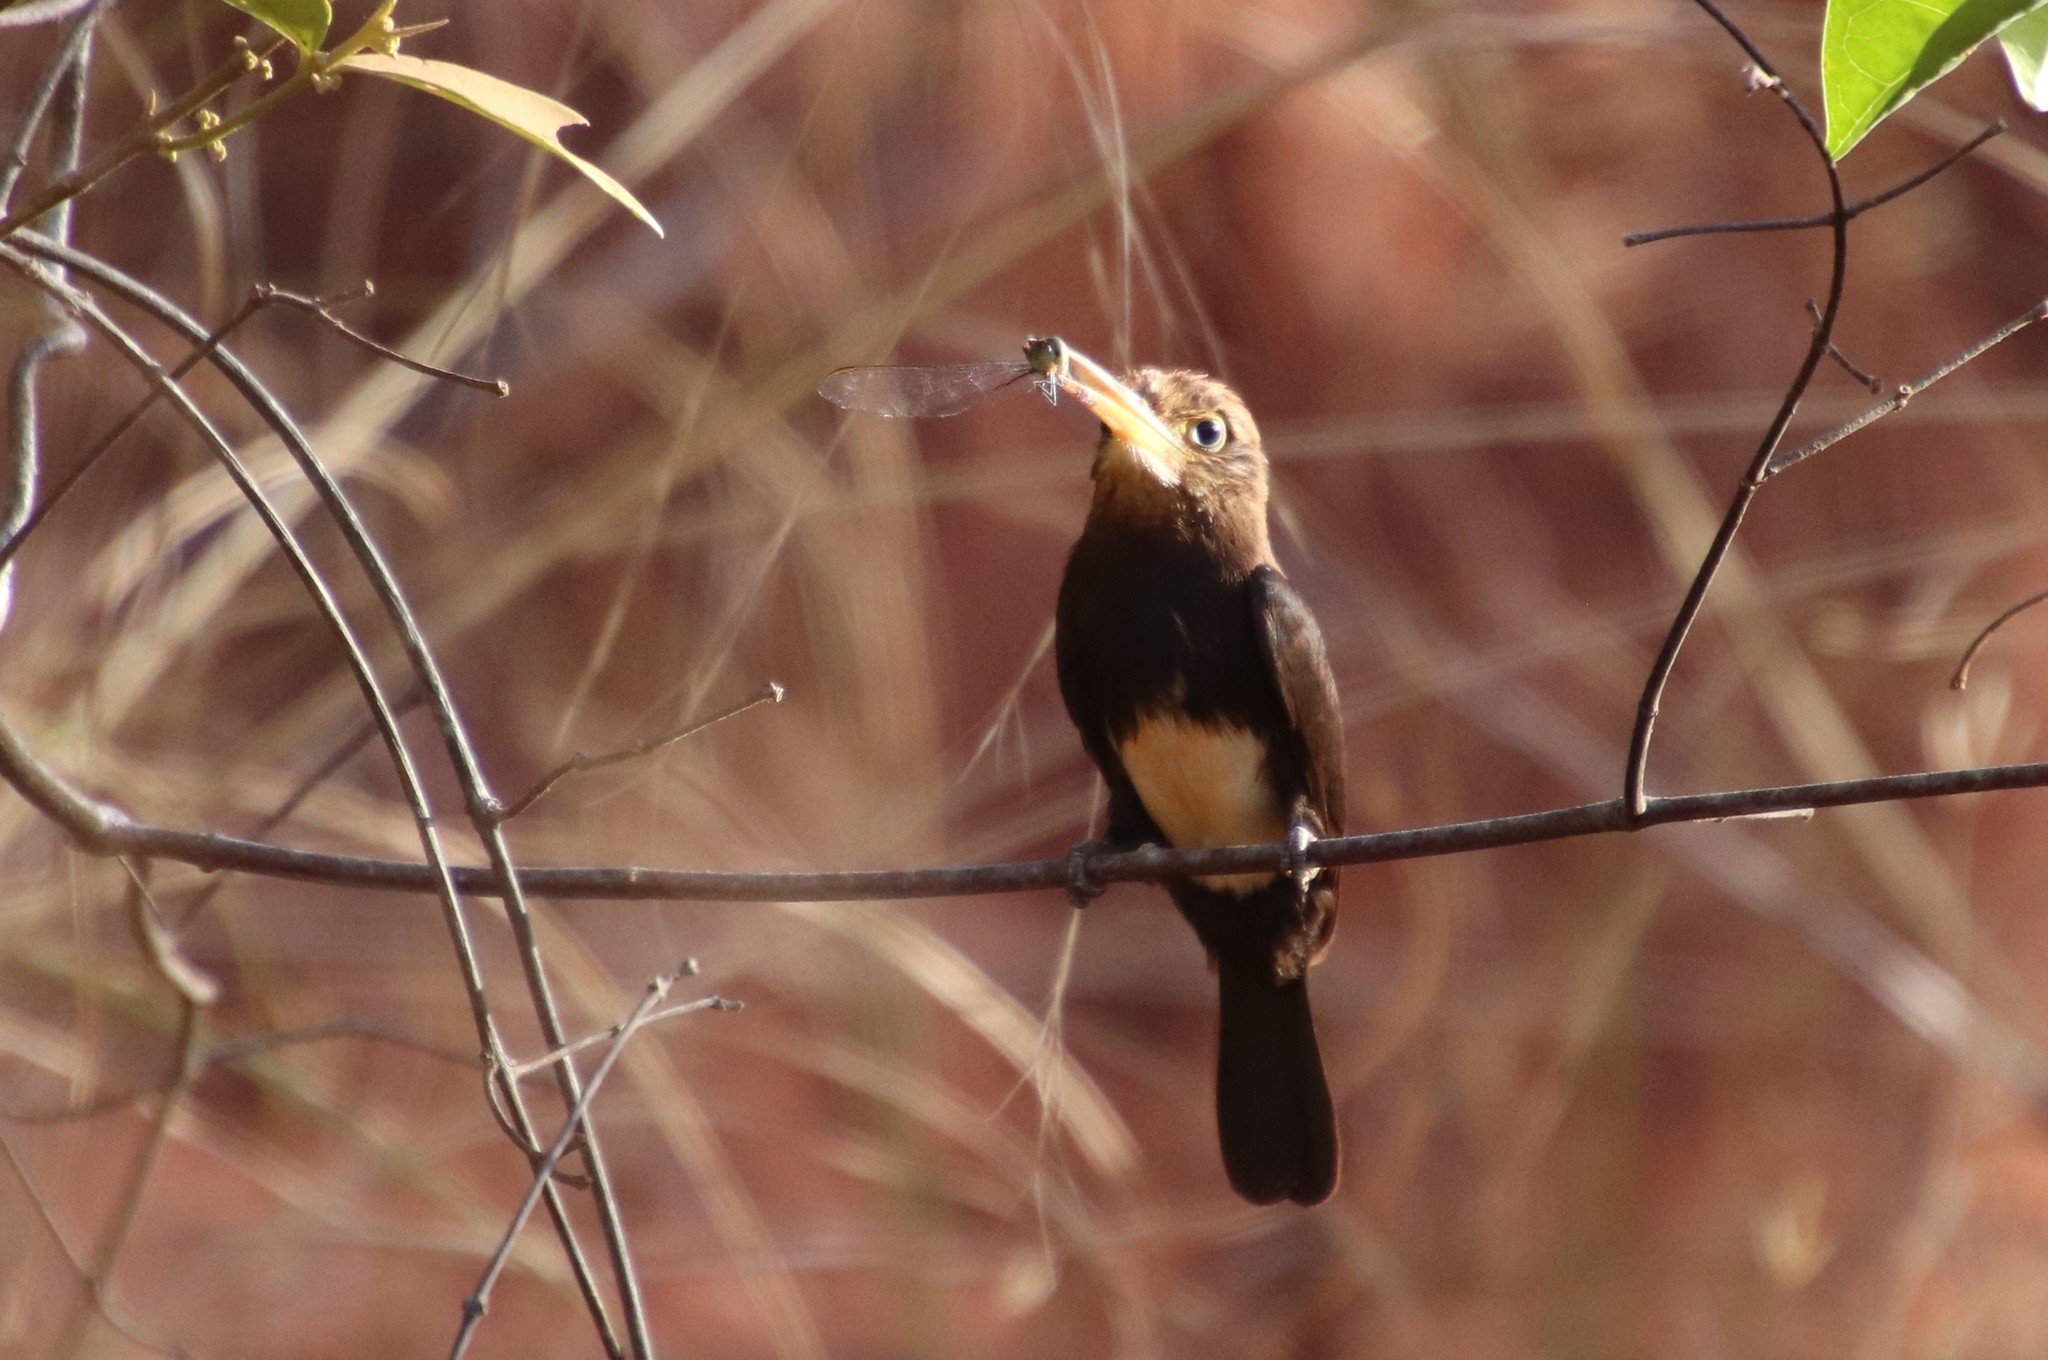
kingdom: Animalia
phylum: Chordata
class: Aves
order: Piciformes
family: Galbulidae
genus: Brachygalba
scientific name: Brachygalba lugubris
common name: Brown jacamar
